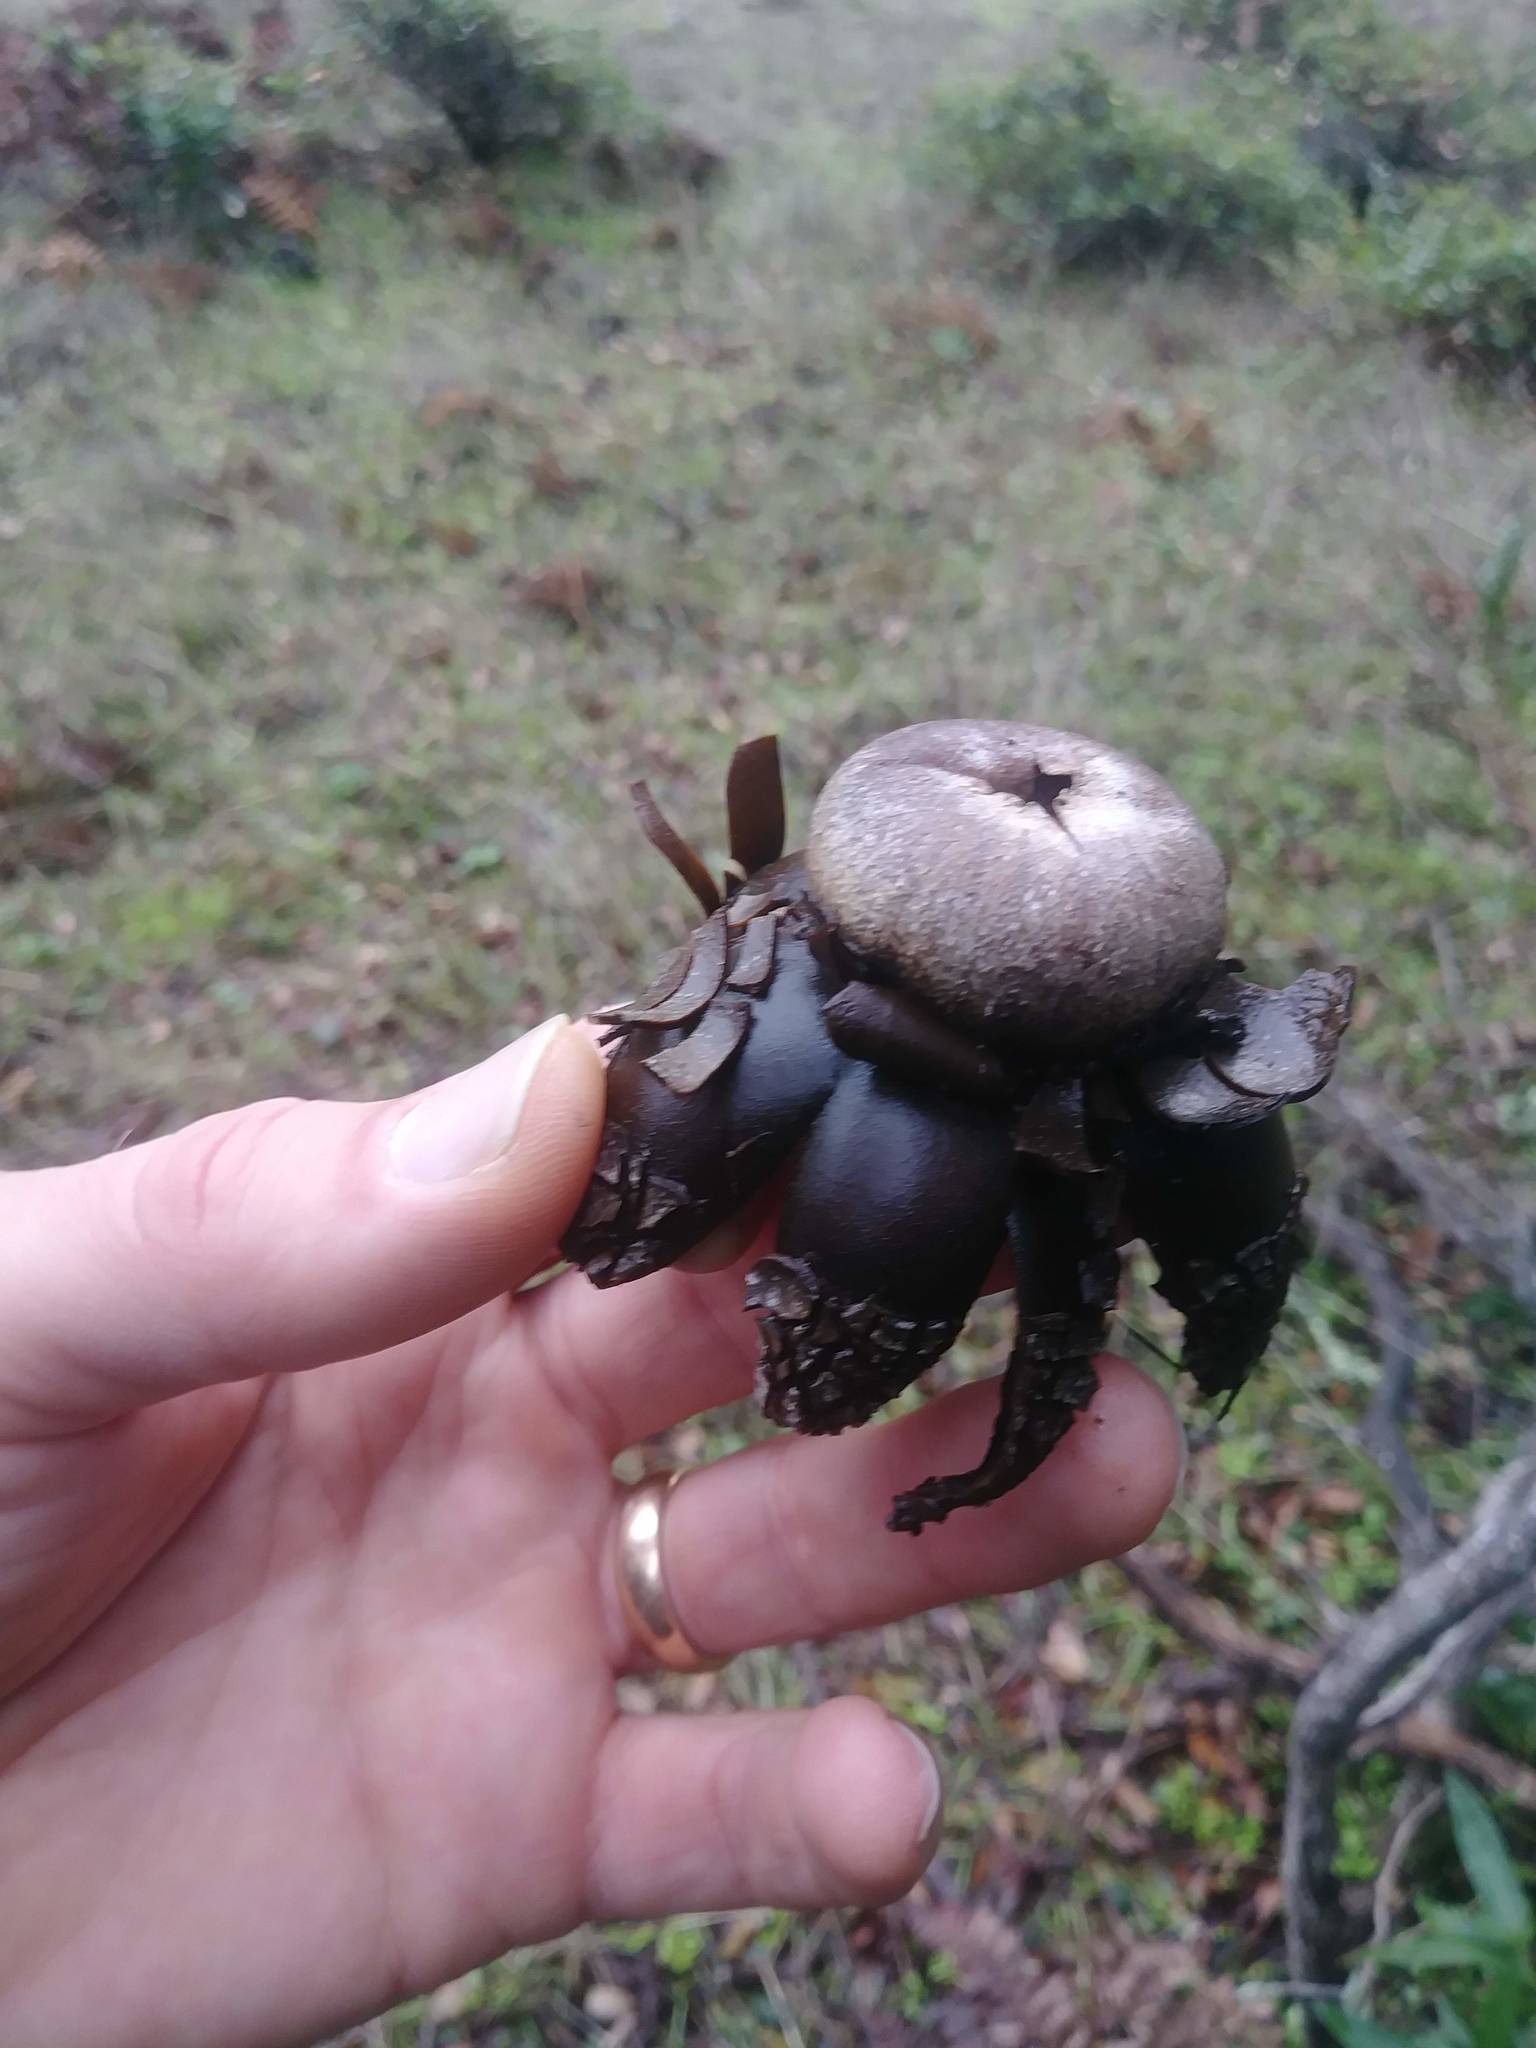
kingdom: Fungi
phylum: Basidiomycota
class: Agaricomycetes
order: Boletales
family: Diplocystidiaceae
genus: Astraeus
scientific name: Astraeus hygrometricus
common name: Barometer earthstar
